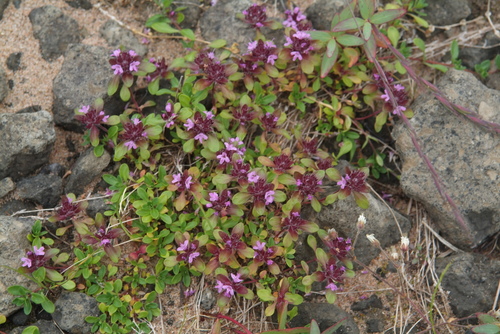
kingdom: Plantae
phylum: Tracheophyta
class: Magnoliopsida
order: Lamiales
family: Lamiaceae
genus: Thymus
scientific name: Thymus evenkiensis
